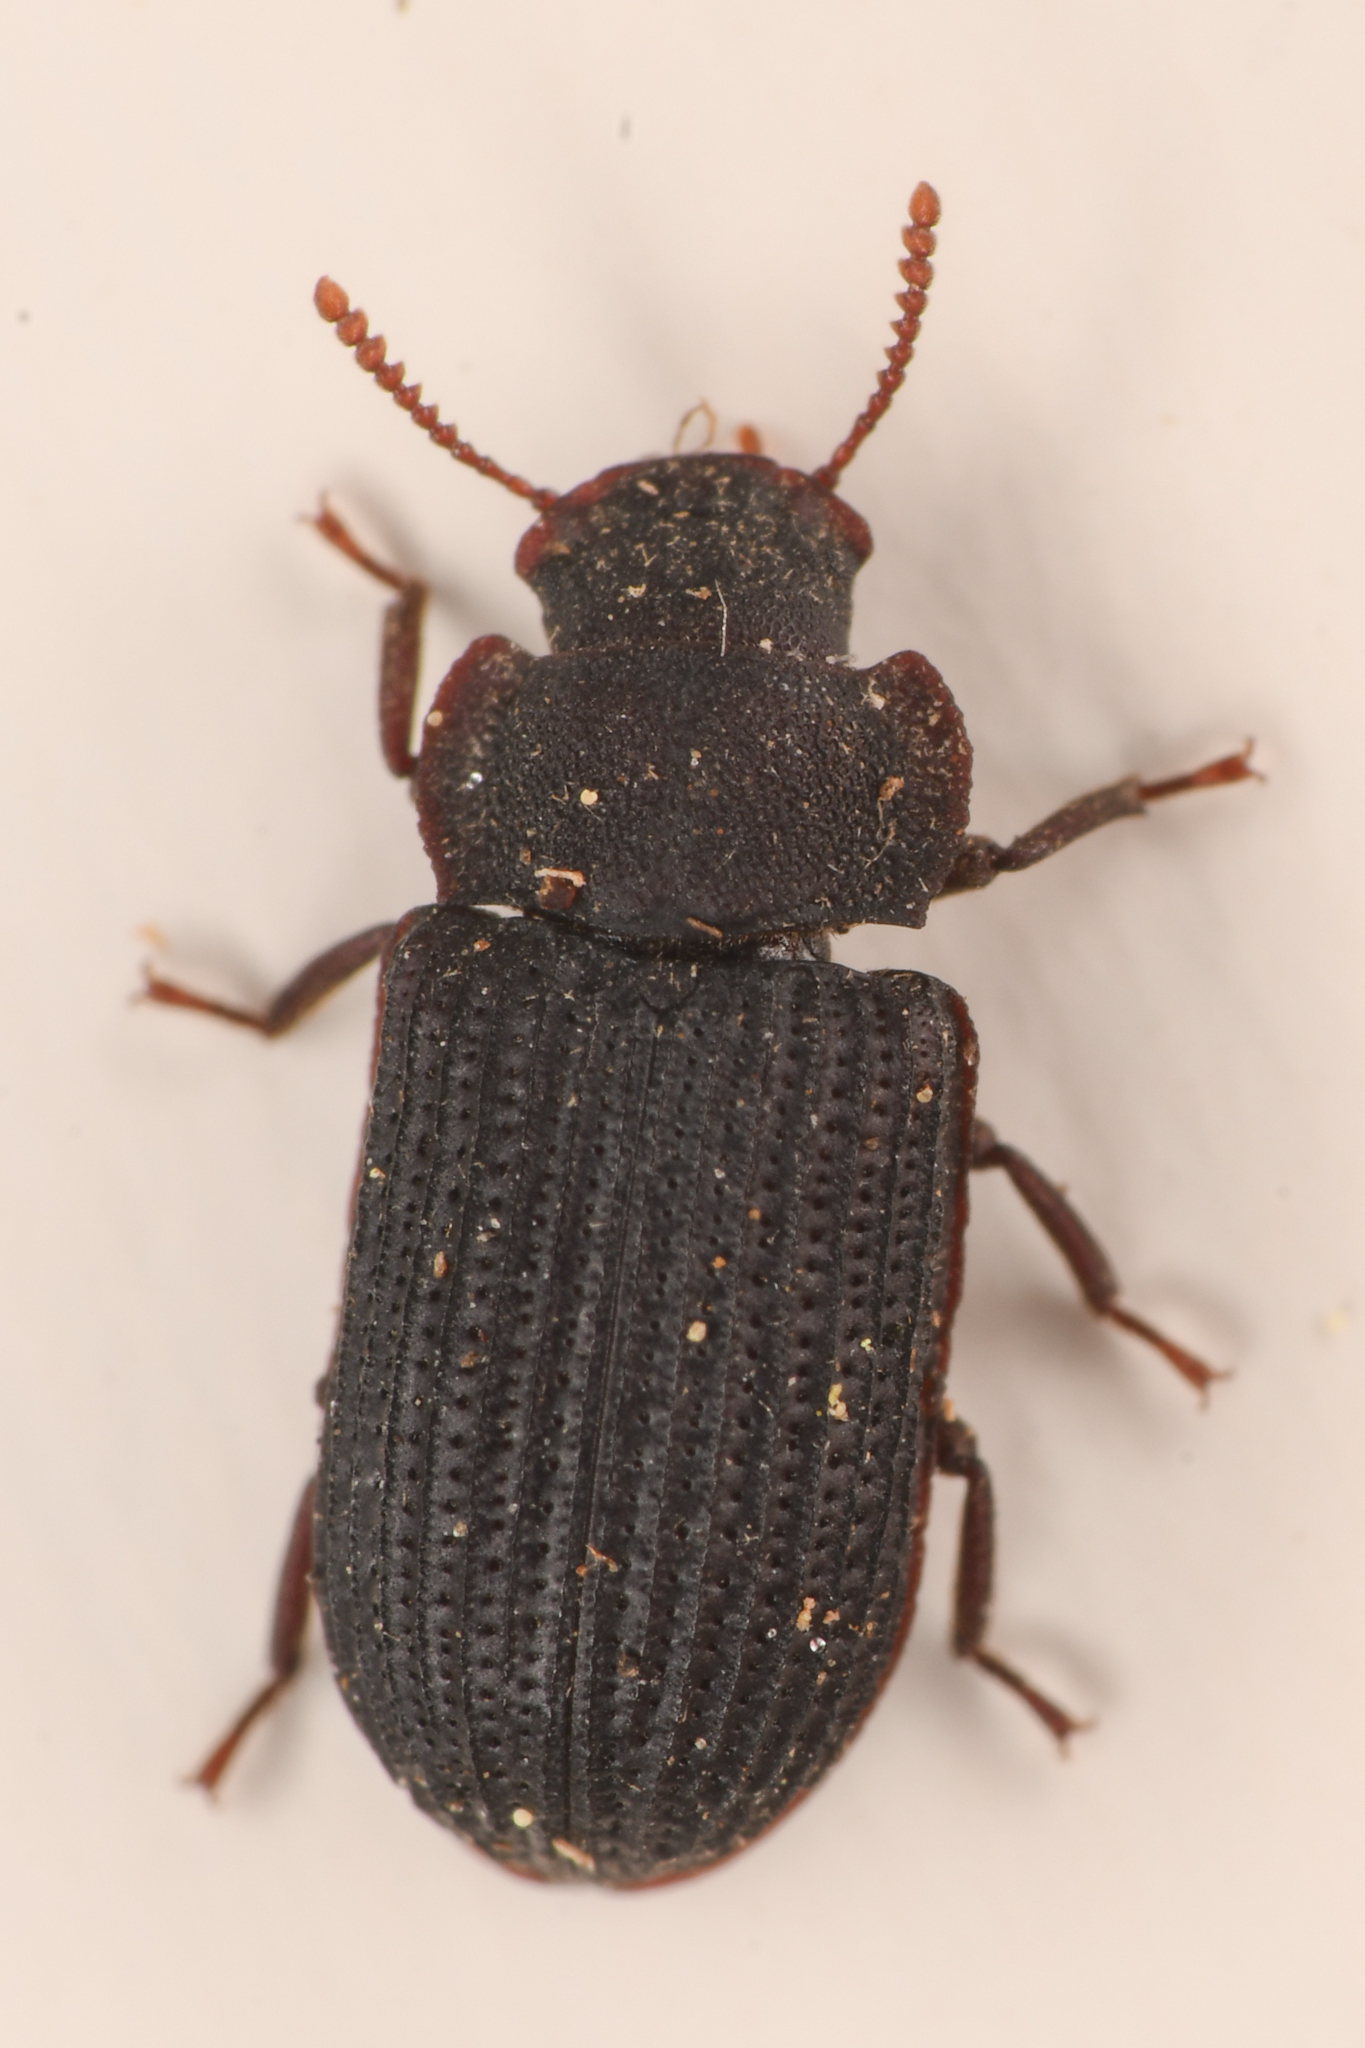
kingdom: Animalia
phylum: Arthropoda
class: Insecta
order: Coleoptera
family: Tenebrionidae
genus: Eleates
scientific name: Eleates
